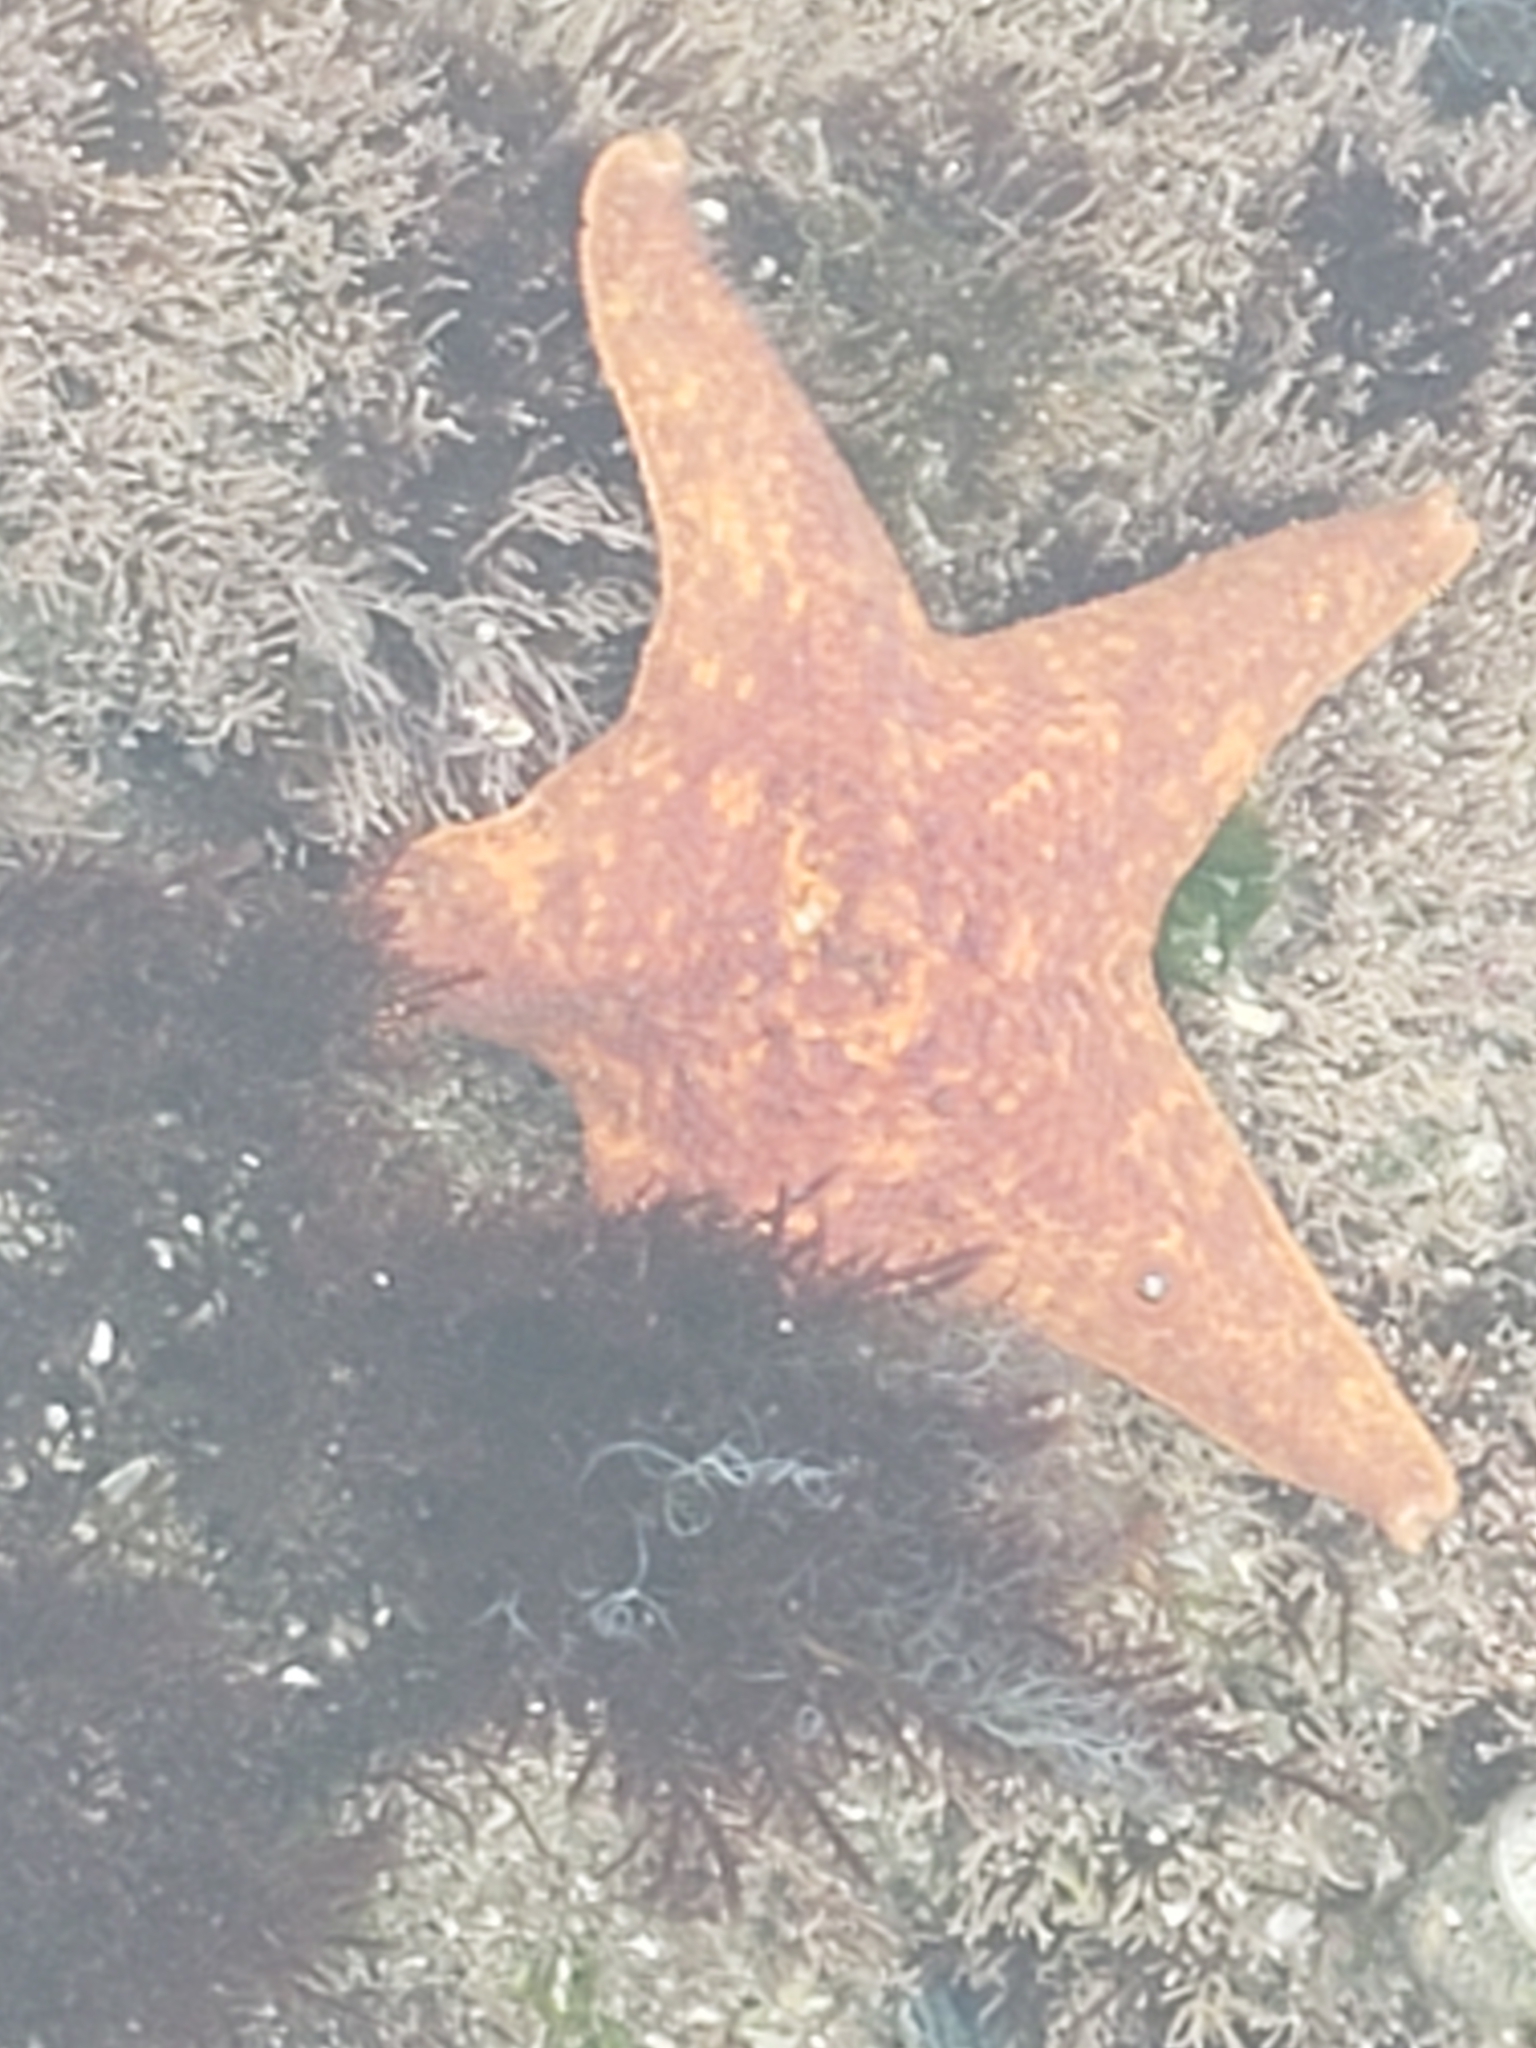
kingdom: Animalia
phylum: Echinodermata
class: Asteroidea
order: Valvatida
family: Asterinidae
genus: Patiria
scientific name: Patiria miniata
